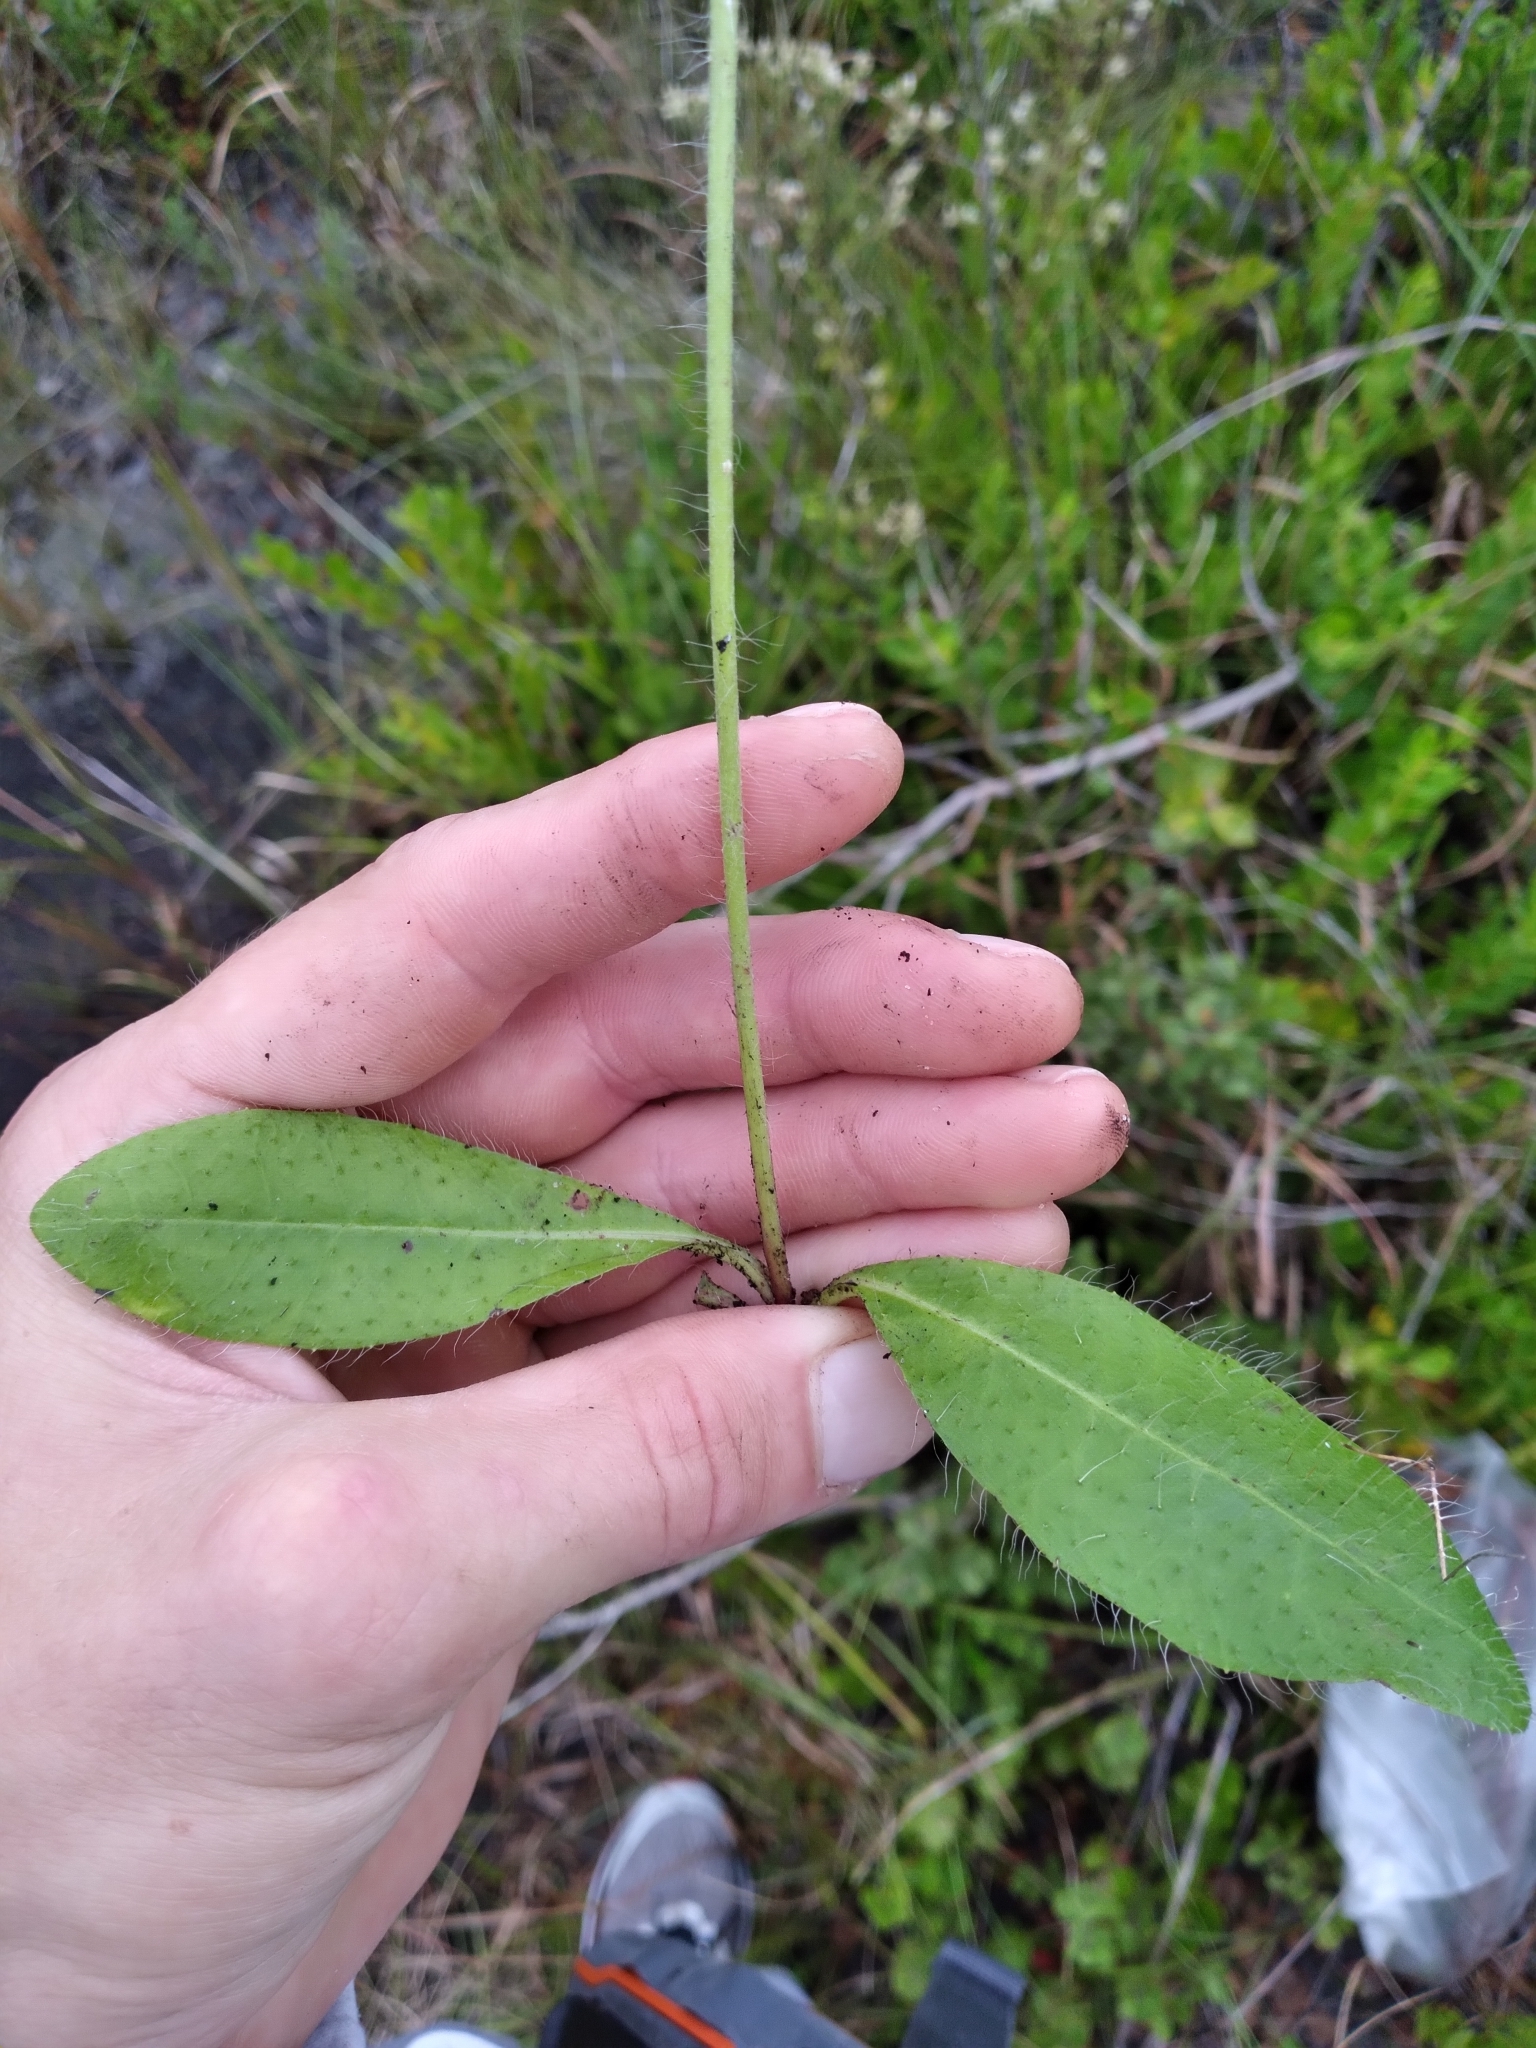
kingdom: Plantae
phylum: Tracheophyta
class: Magnoliopsida
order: Asterales
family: Asteraceae
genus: Hieracium
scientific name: Hieracium megacephalum
